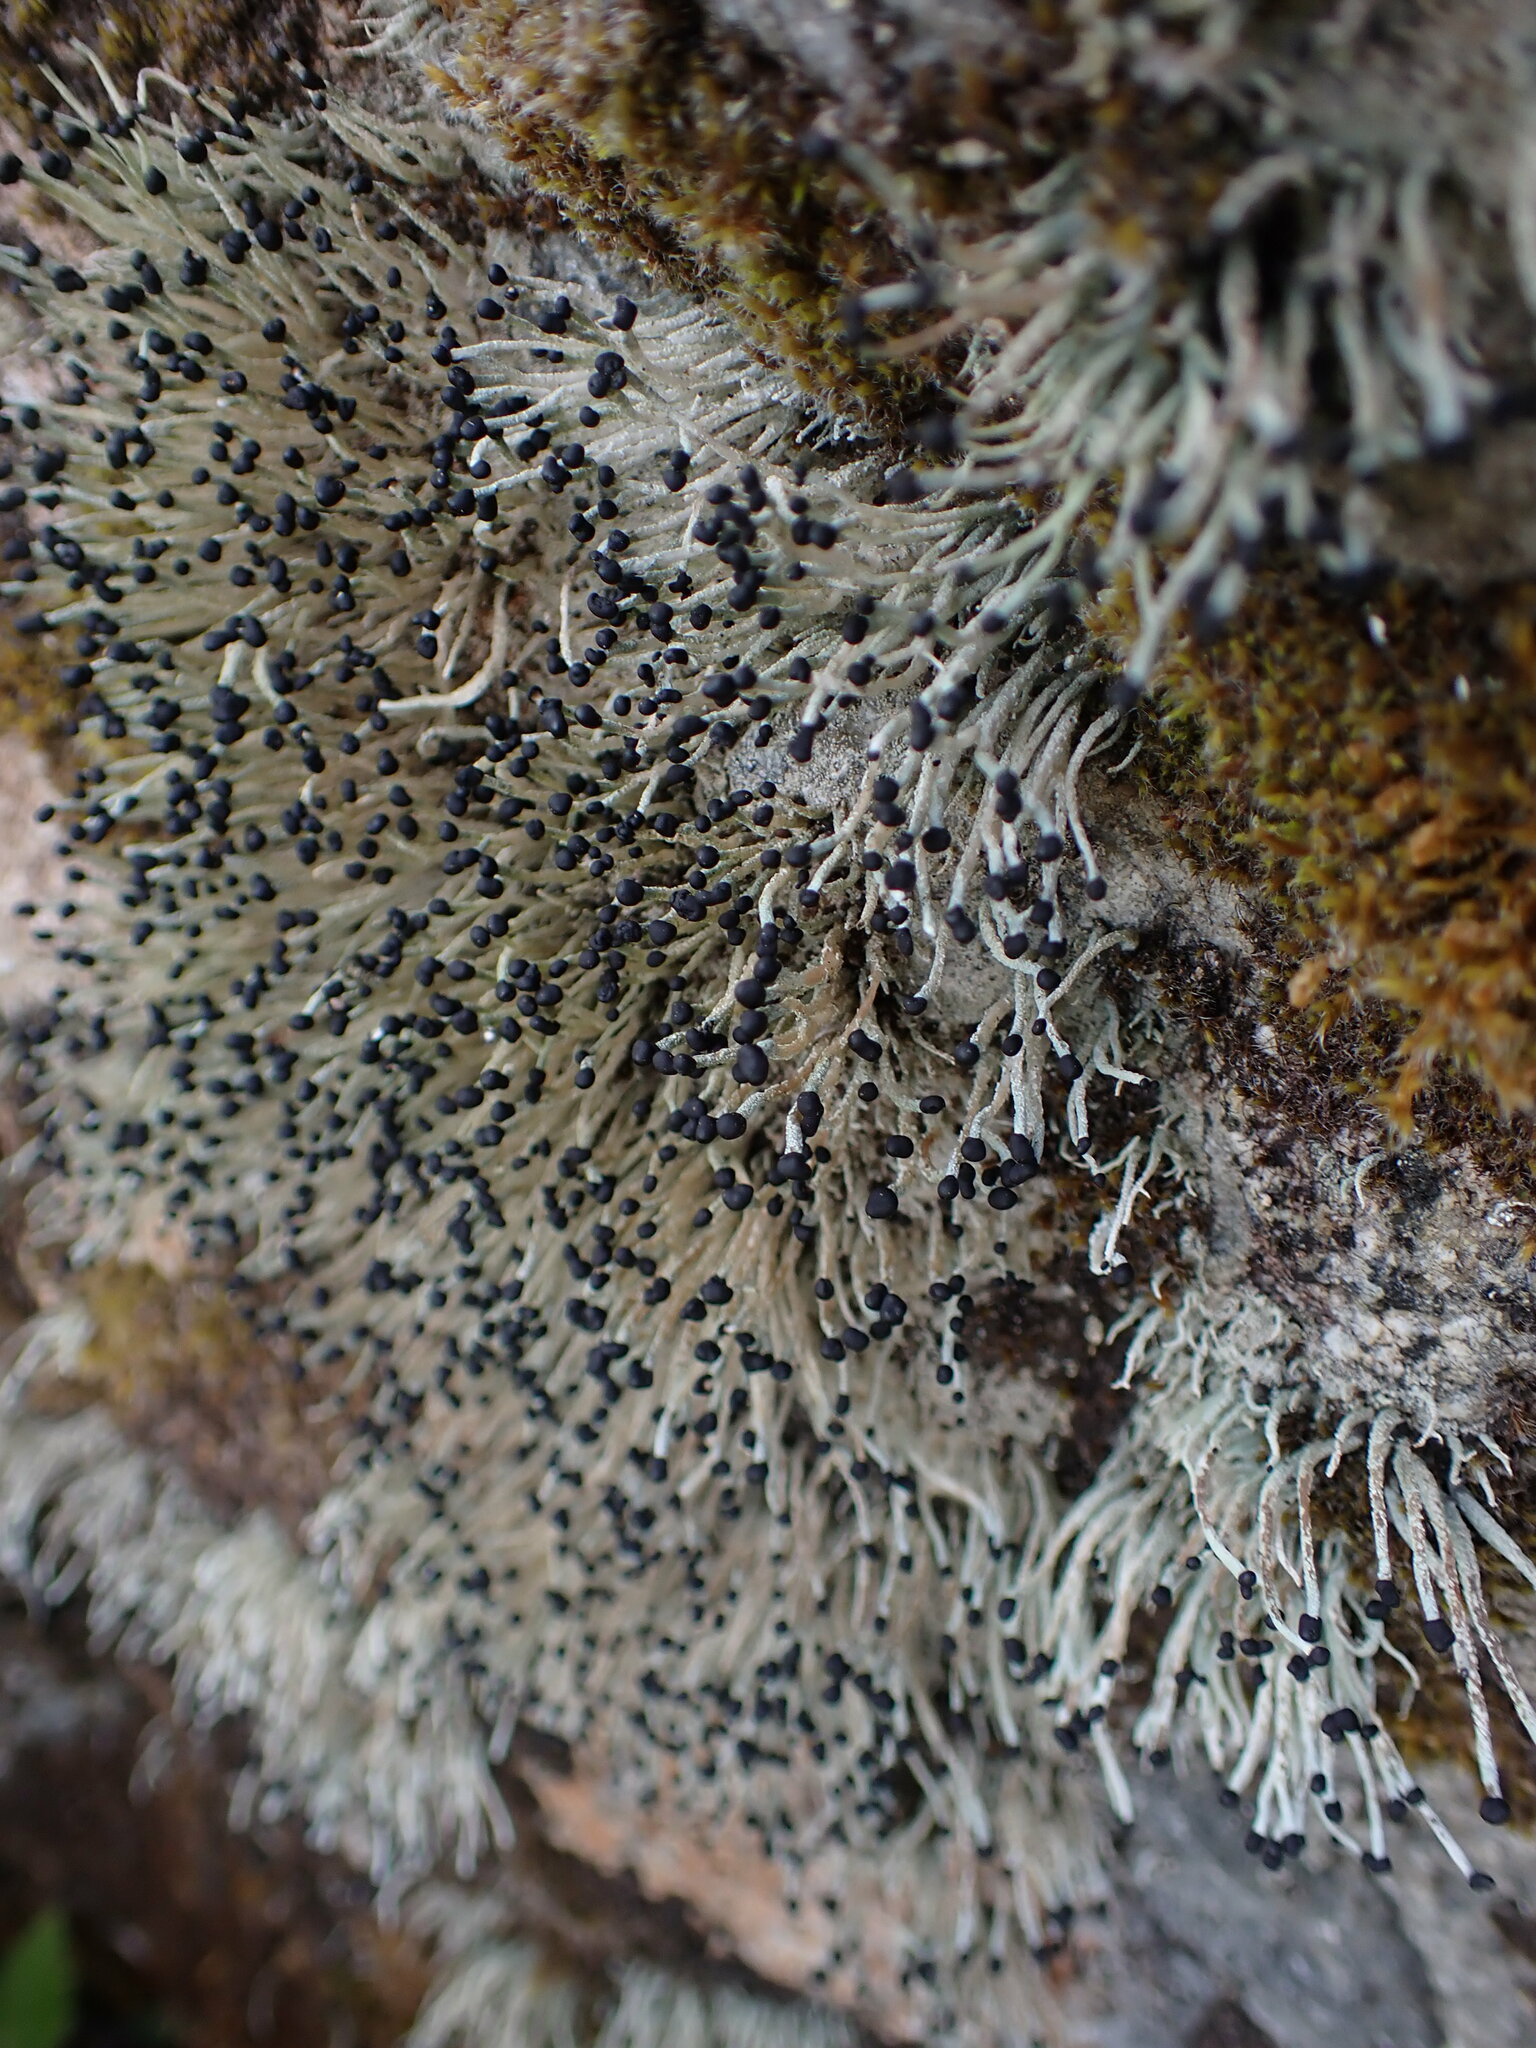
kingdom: Fungi
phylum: Ascomycota
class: Lecanoromycetes
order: Lecanorales
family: Cladoniaceae
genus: Pilophorus
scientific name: Pilophorus acicularis
